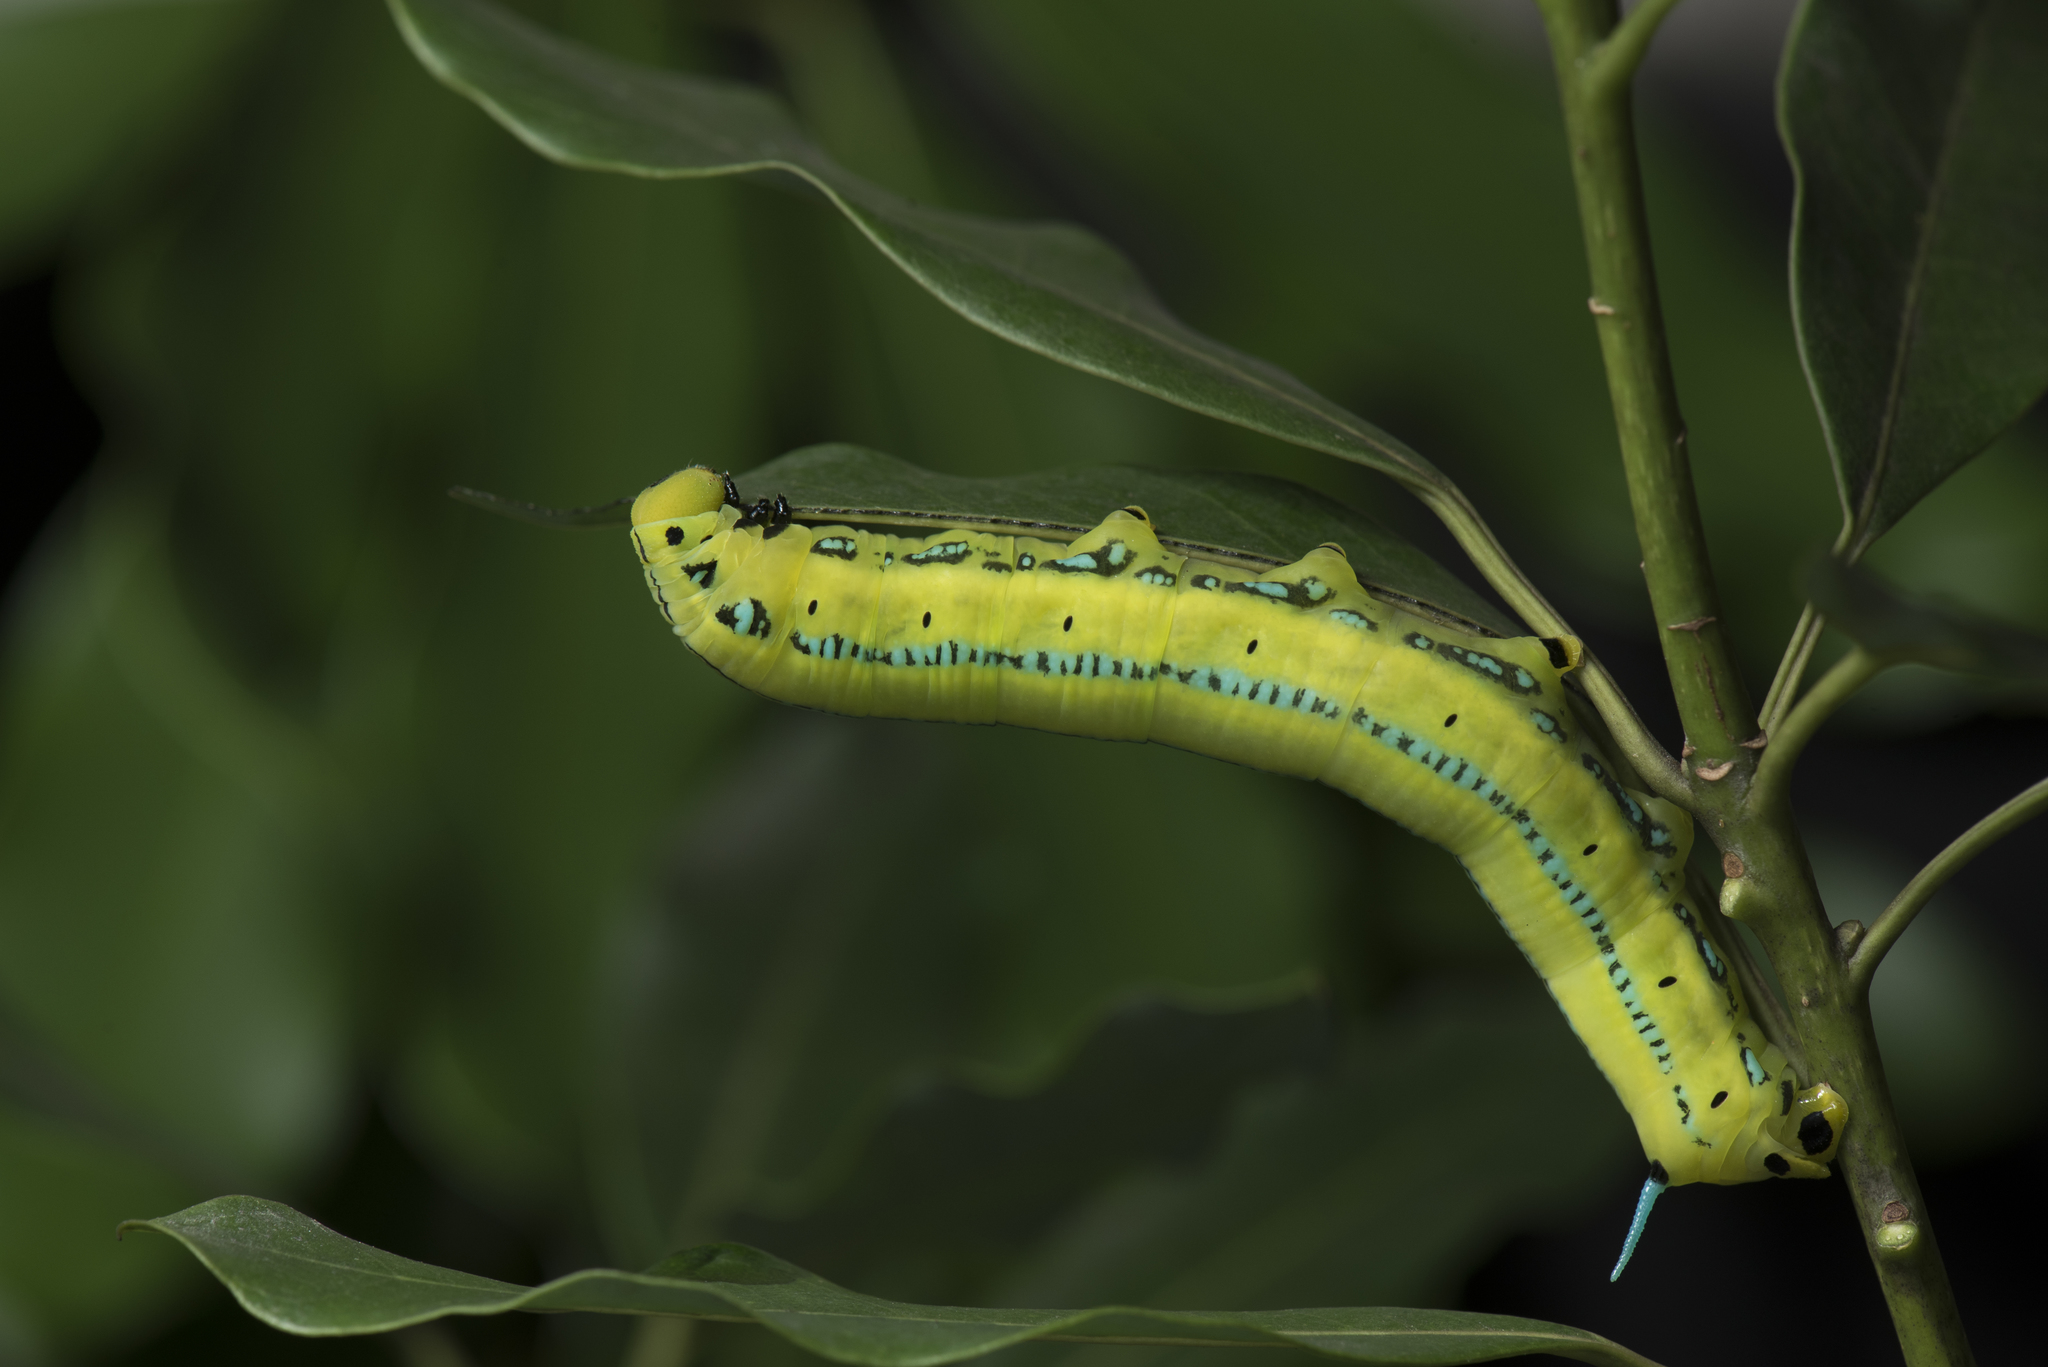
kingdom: Animalia
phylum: Arthropoda
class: Insecta
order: Lepidoptera
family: Sphingidae
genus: Macroglossum
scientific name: Macroglossum passalus
